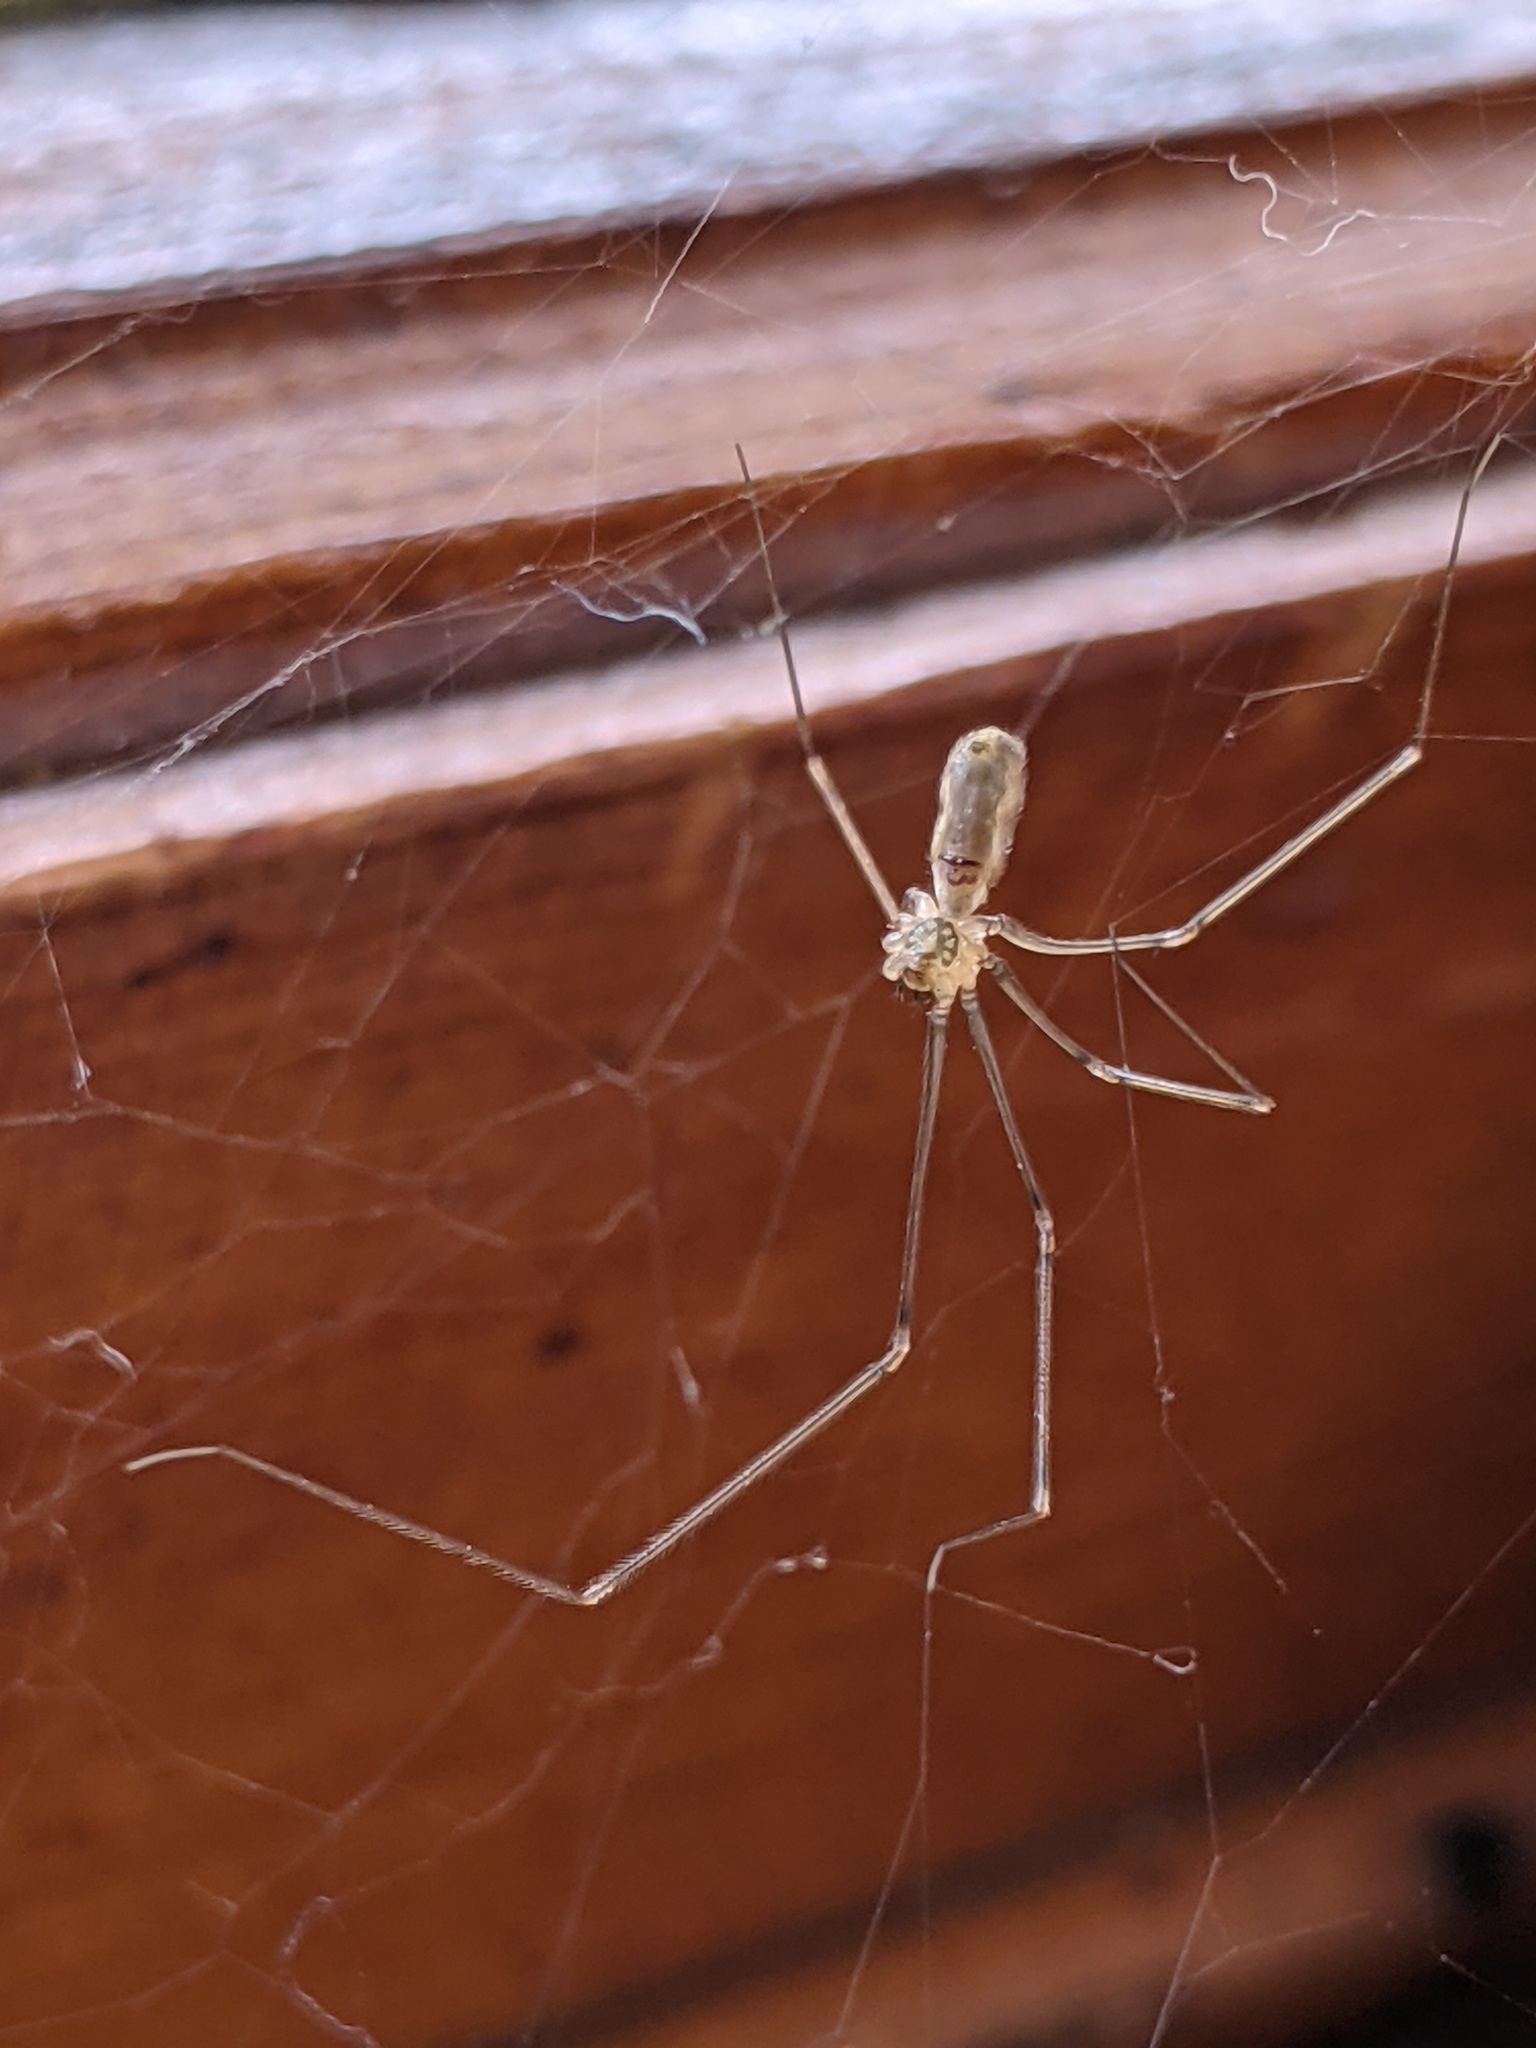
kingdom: Animalia
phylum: Arthropoda
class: Arachnida
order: Araneae
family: Pholcidae
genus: Pholcus
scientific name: Pholcus phalangioides
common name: Longbodied cellar spider
